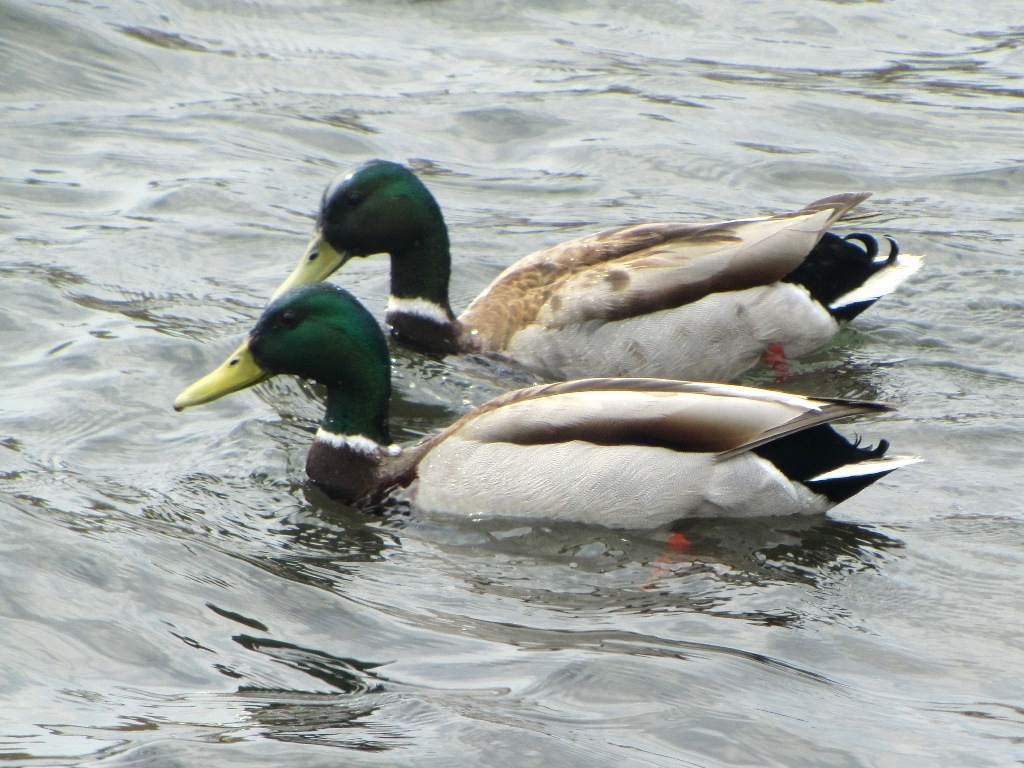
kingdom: Animalia
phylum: Chordata
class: Aves
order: Anseriformes
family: Anatidae
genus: Anas
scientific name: Anas platyrhynchos
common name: Mallard
